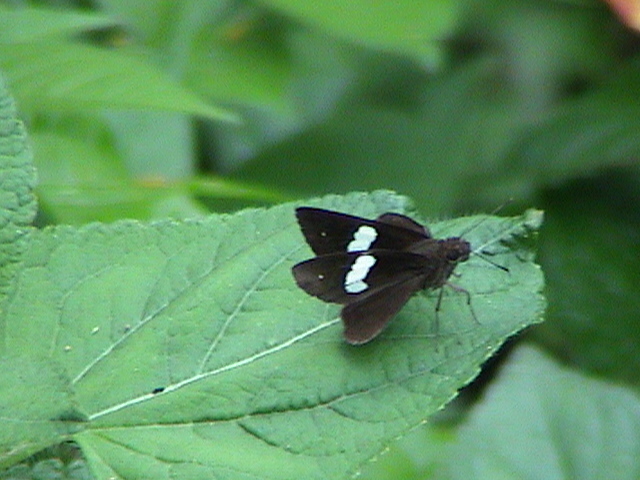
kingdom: Animalia
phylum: Arthropoda
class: Insecta
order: Lepidoptera
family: Hesperiidae
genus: Notocrypta
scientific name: Notocrypta paralysos
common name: Common banded demon
